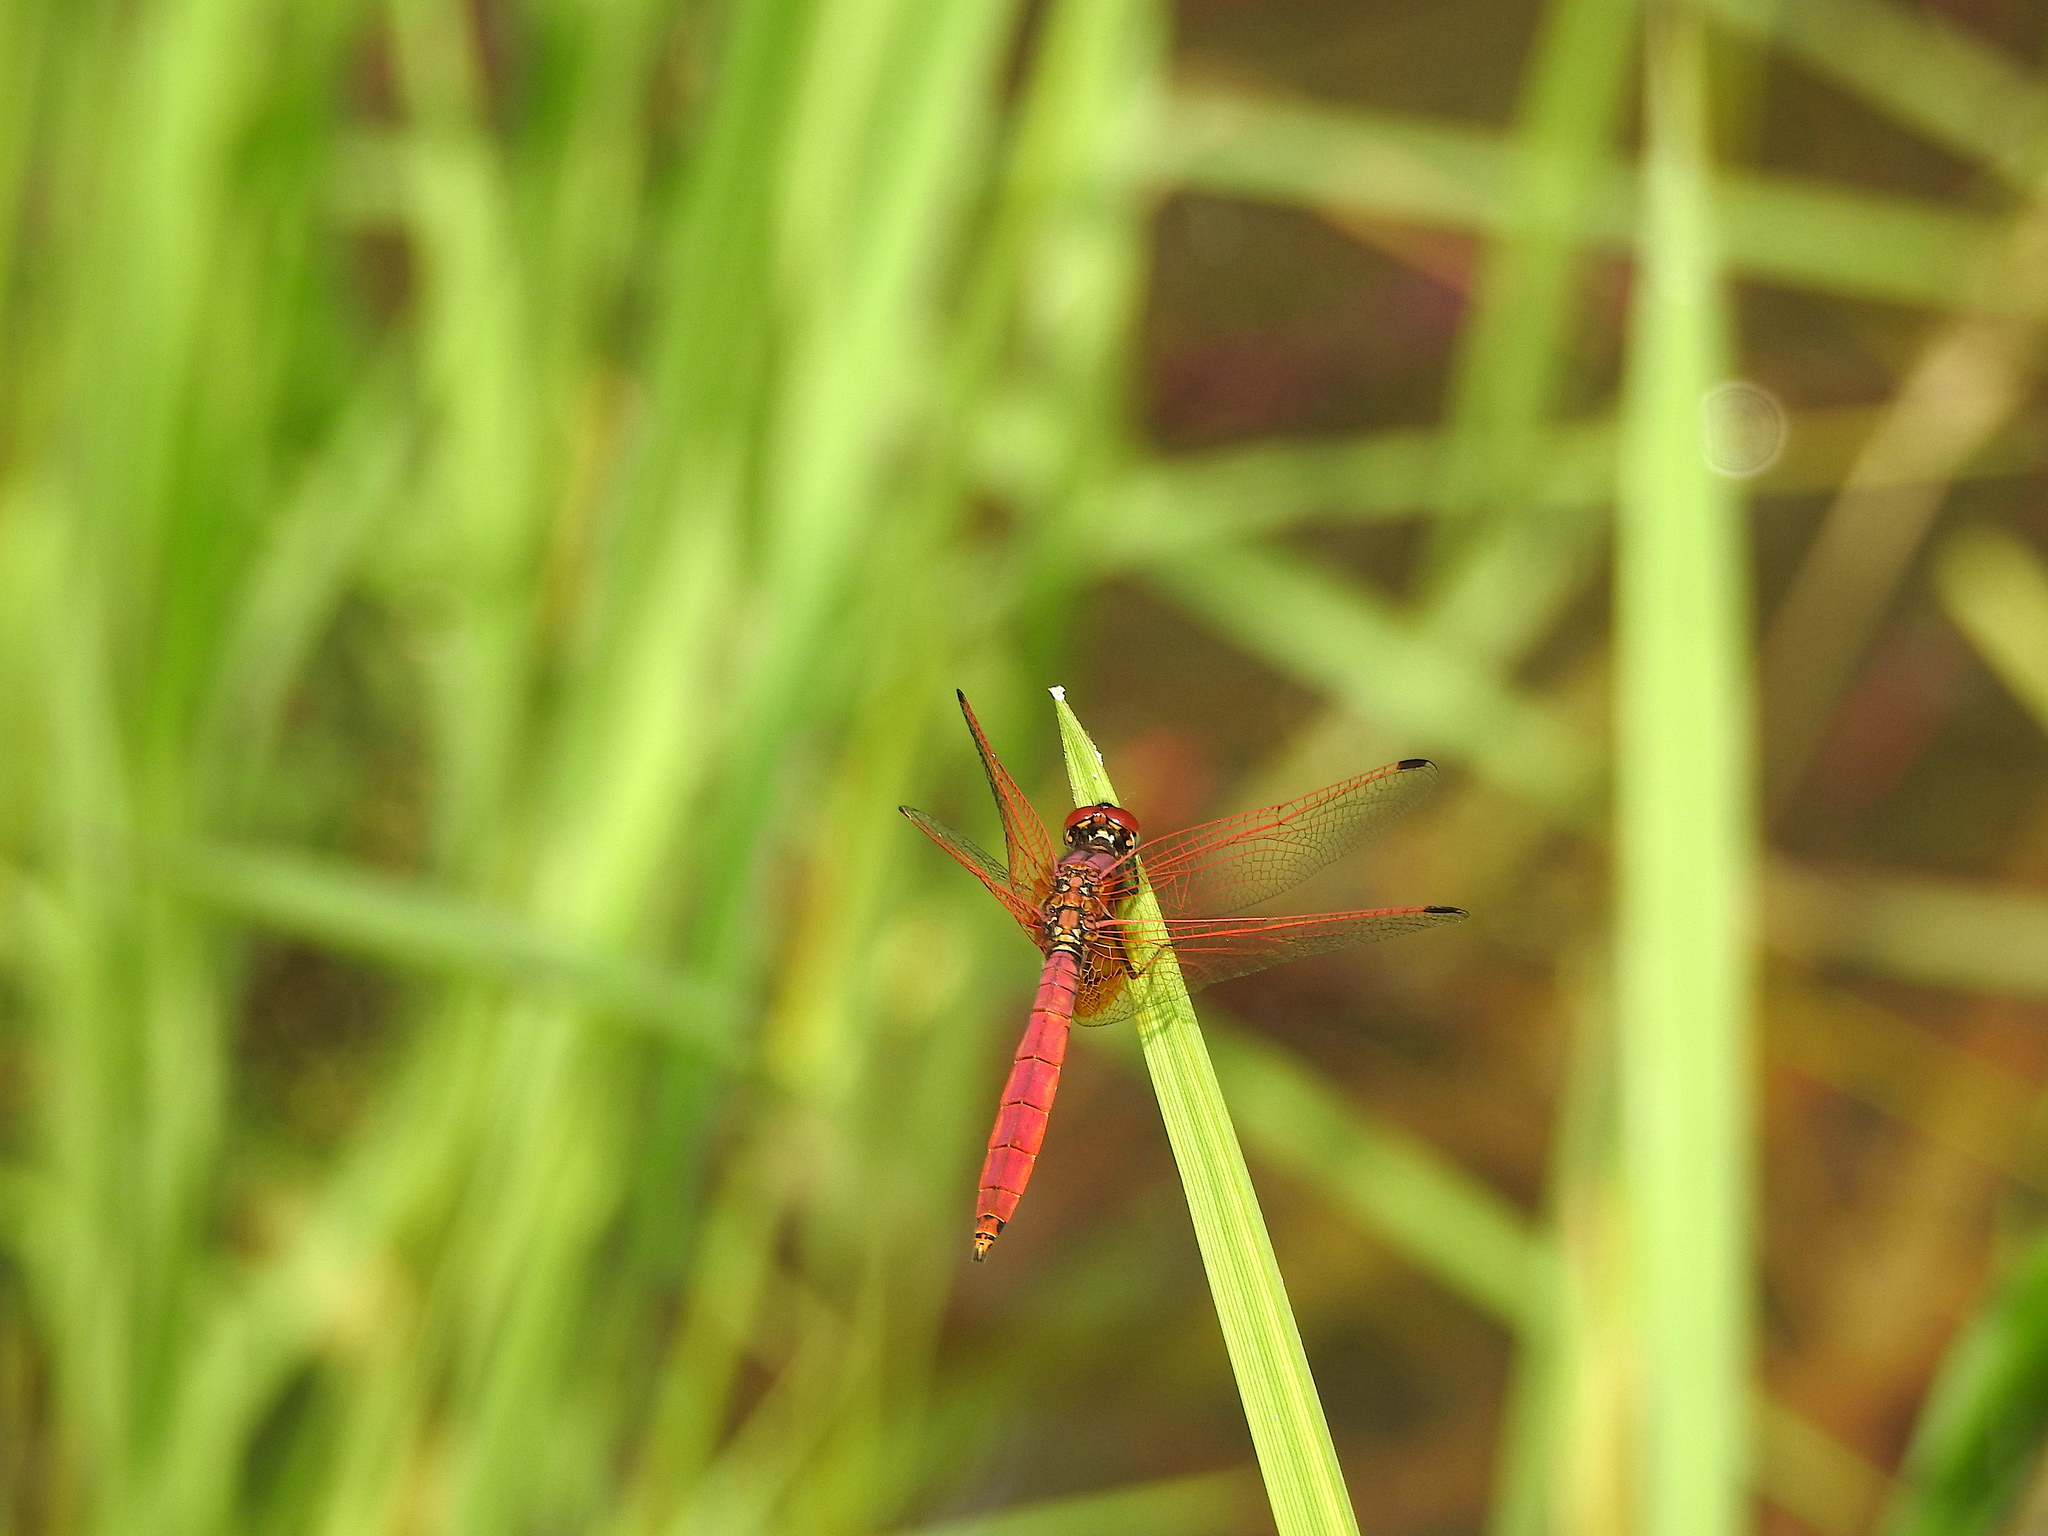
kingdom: Animalia
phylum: Arthropoda
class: Insecta
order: Odonata
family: Libellulidae
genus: Trithemis
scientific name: Trithemis aurora
